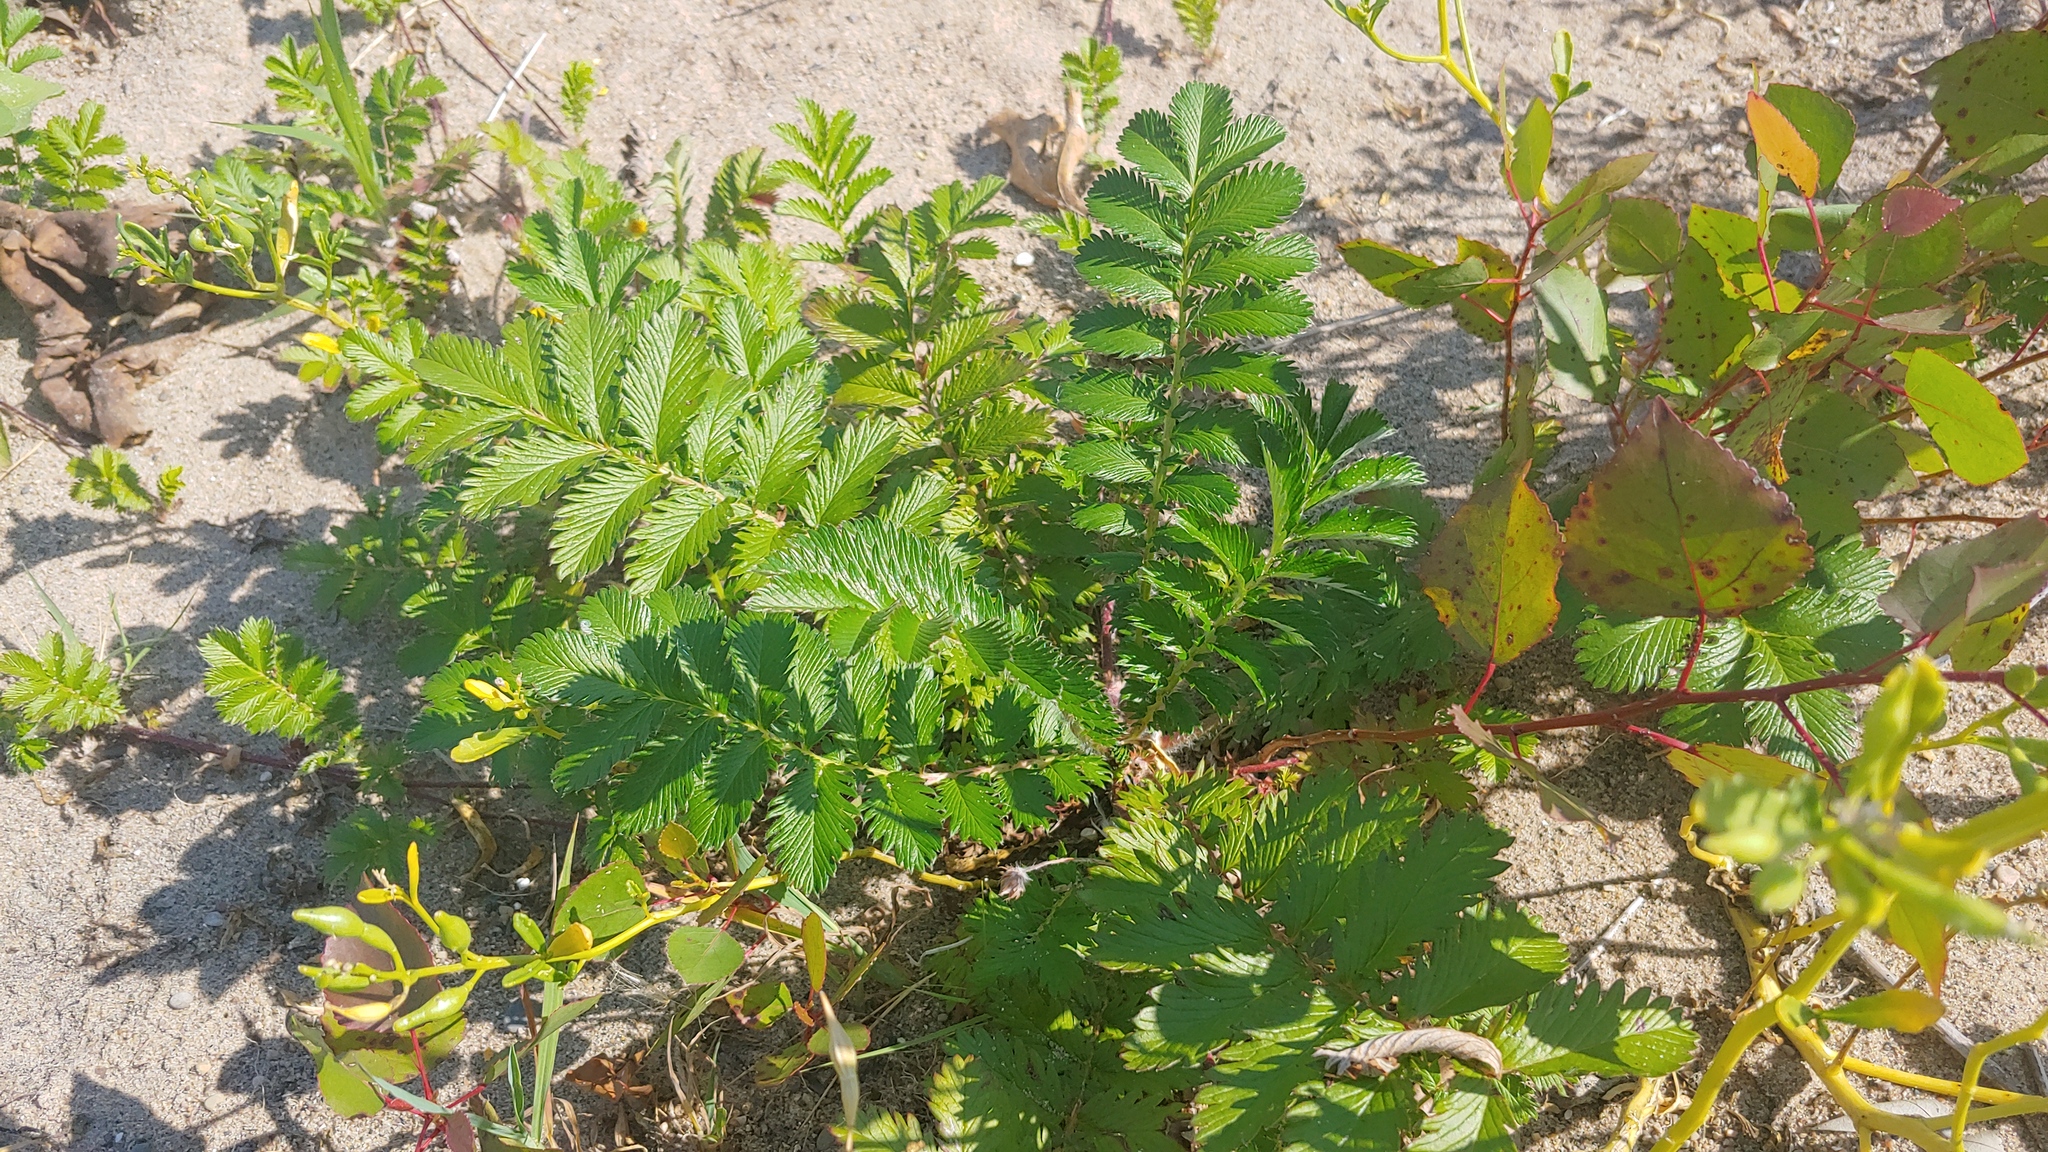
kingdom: Plantae
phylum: Tracheophyta
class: Magnoliopsida
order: Rosales
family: Rosaceae
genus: Argentina
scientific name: Argentina anserina
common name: Common silverweed
